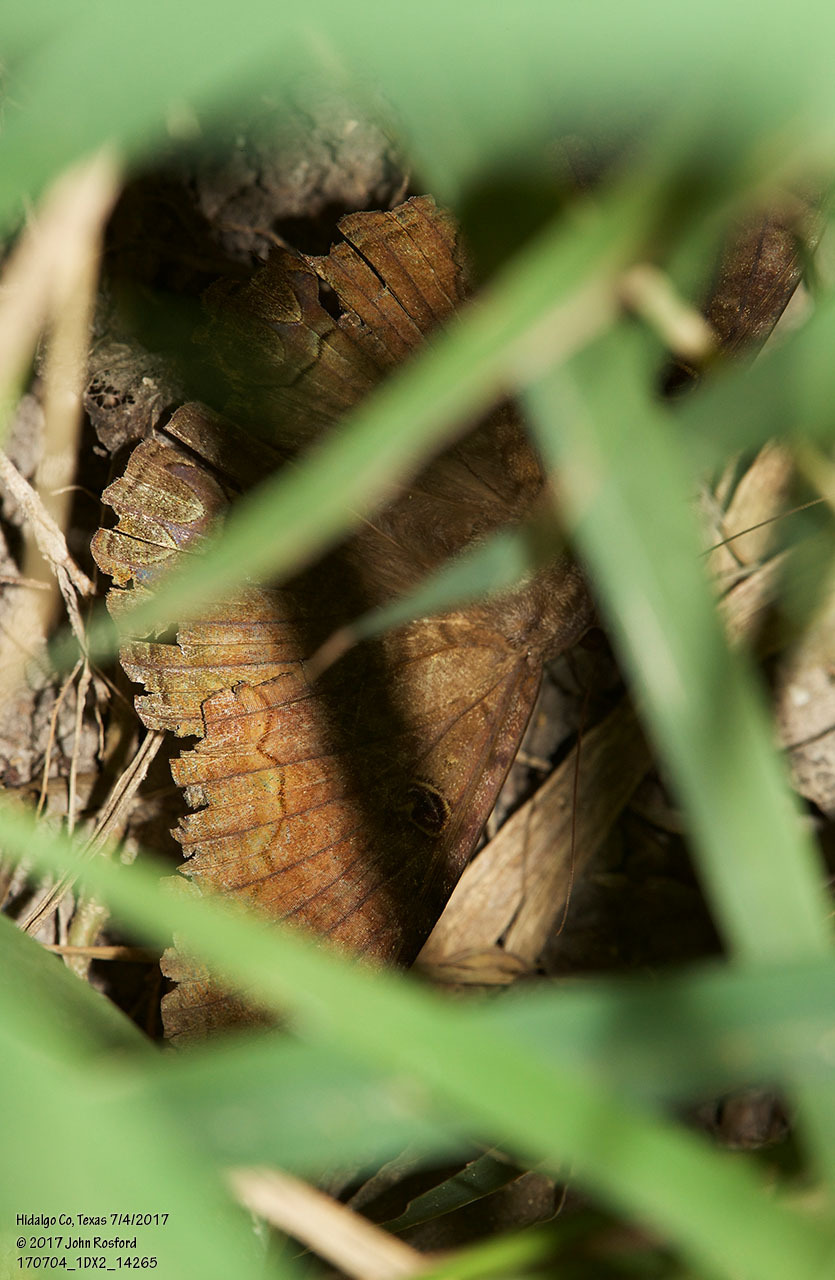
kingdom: Animalia
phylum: Arthropoda
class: Insecta
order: Lepidoptera
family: Erebidae
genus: Ascalapha
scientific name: Ascalapha odorata
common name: Black witch
